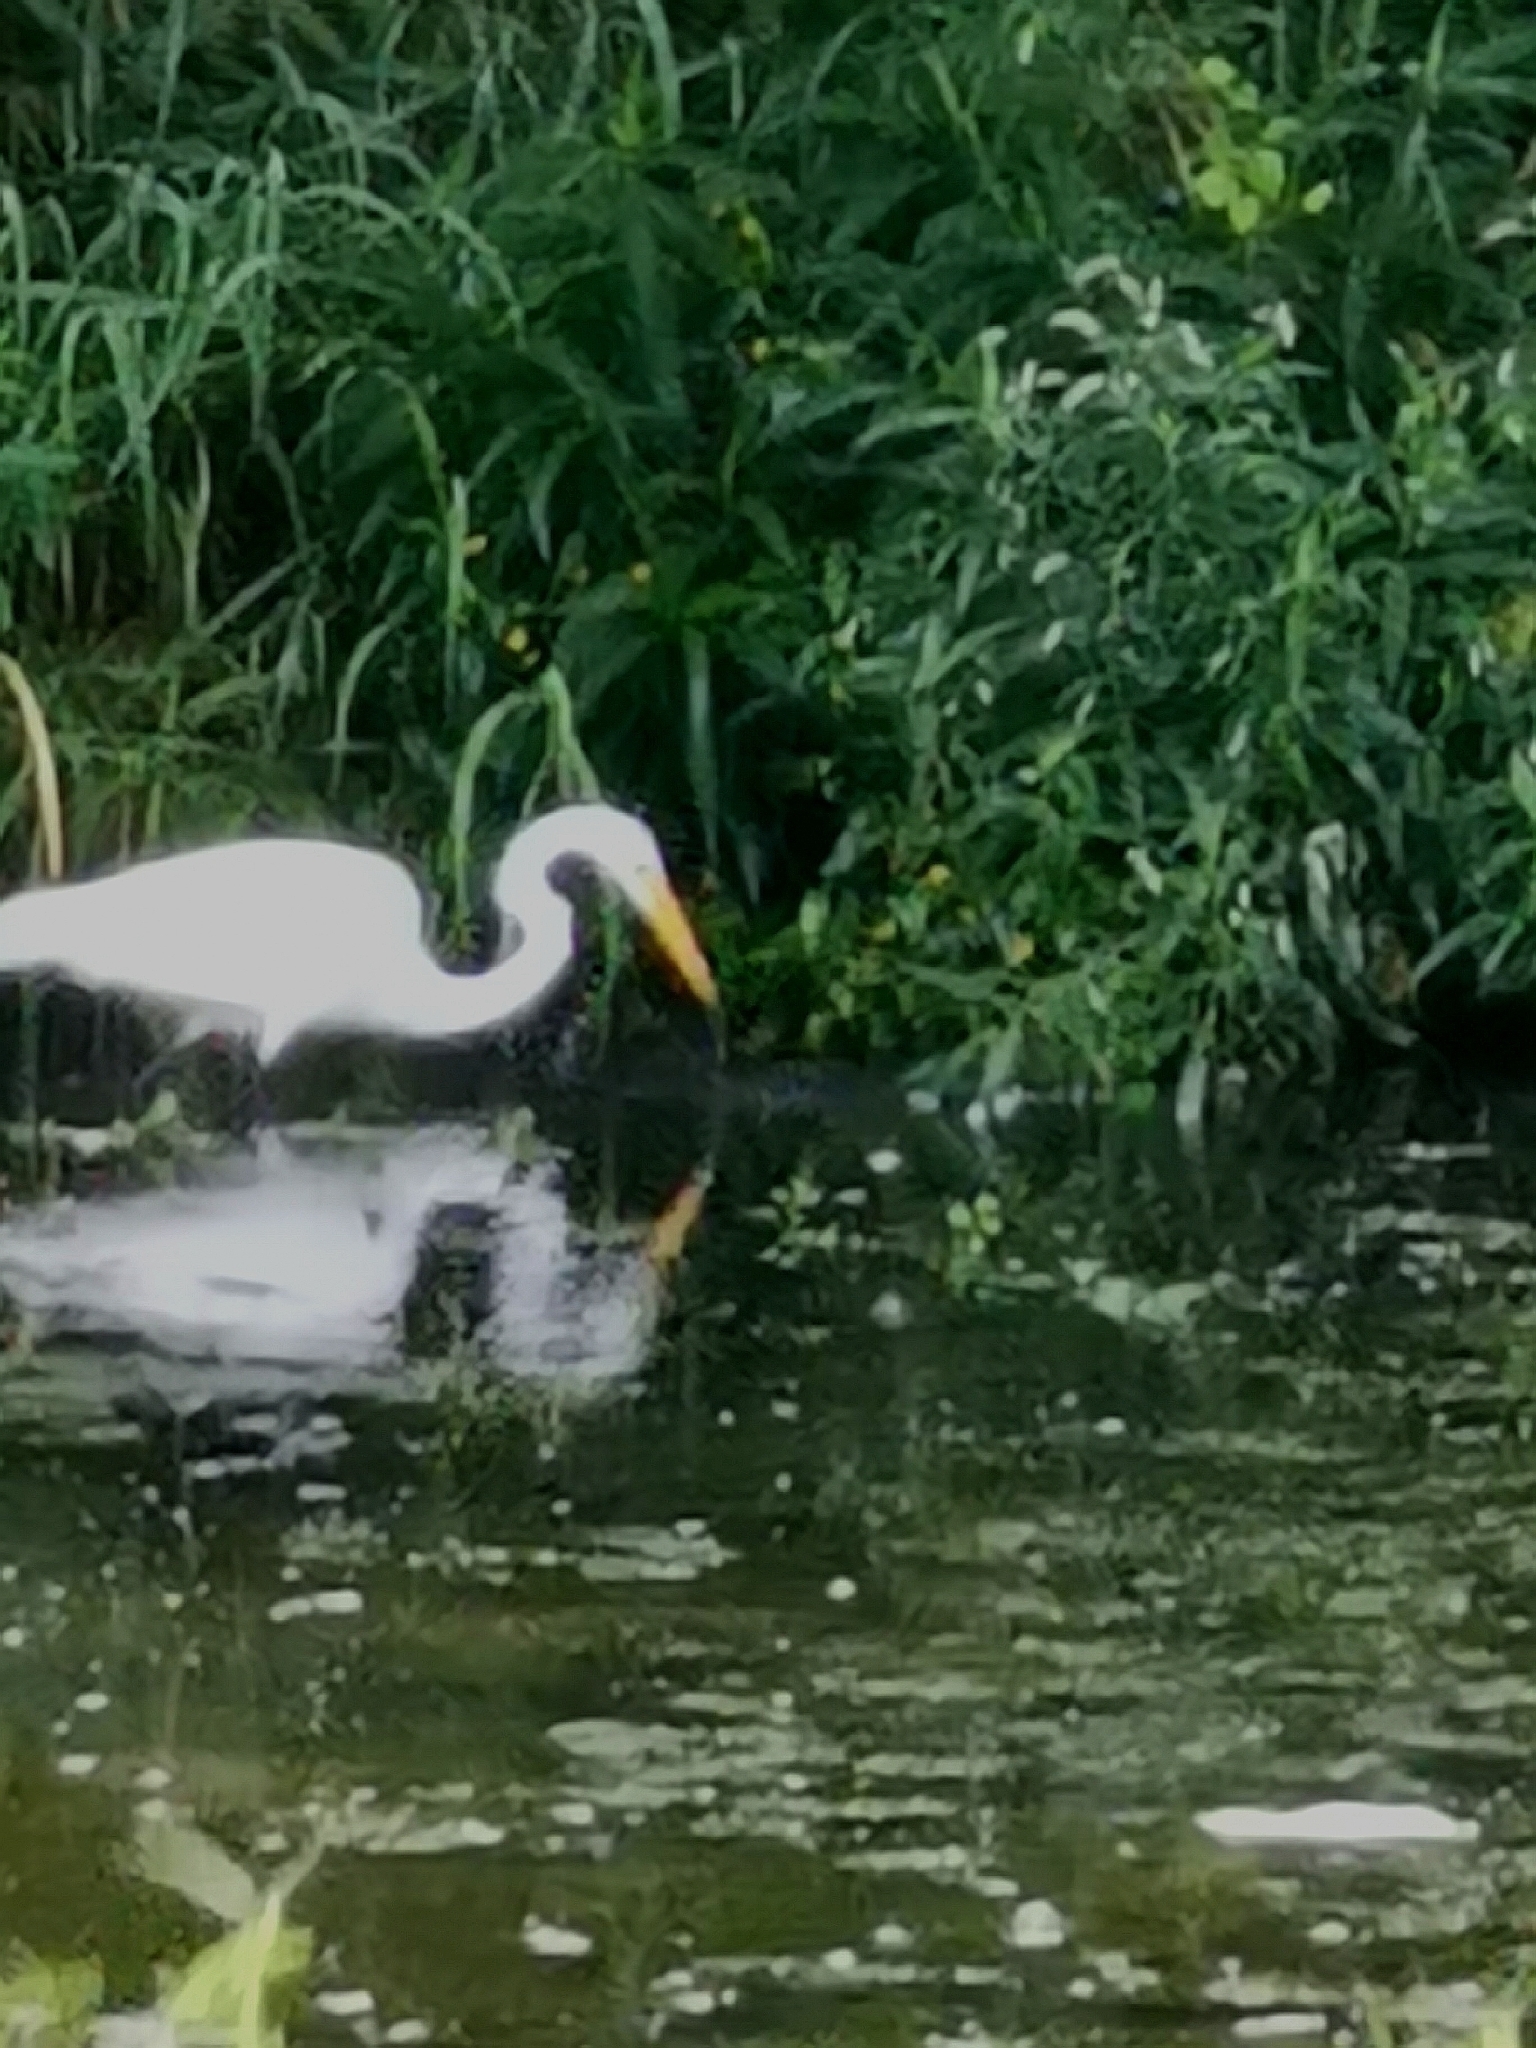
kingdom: Animalia
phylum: Chordata
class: Aves
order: Pelecaniformes
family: Ardeidae
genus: Ardea
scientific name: Ardea alba
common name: Great egret
